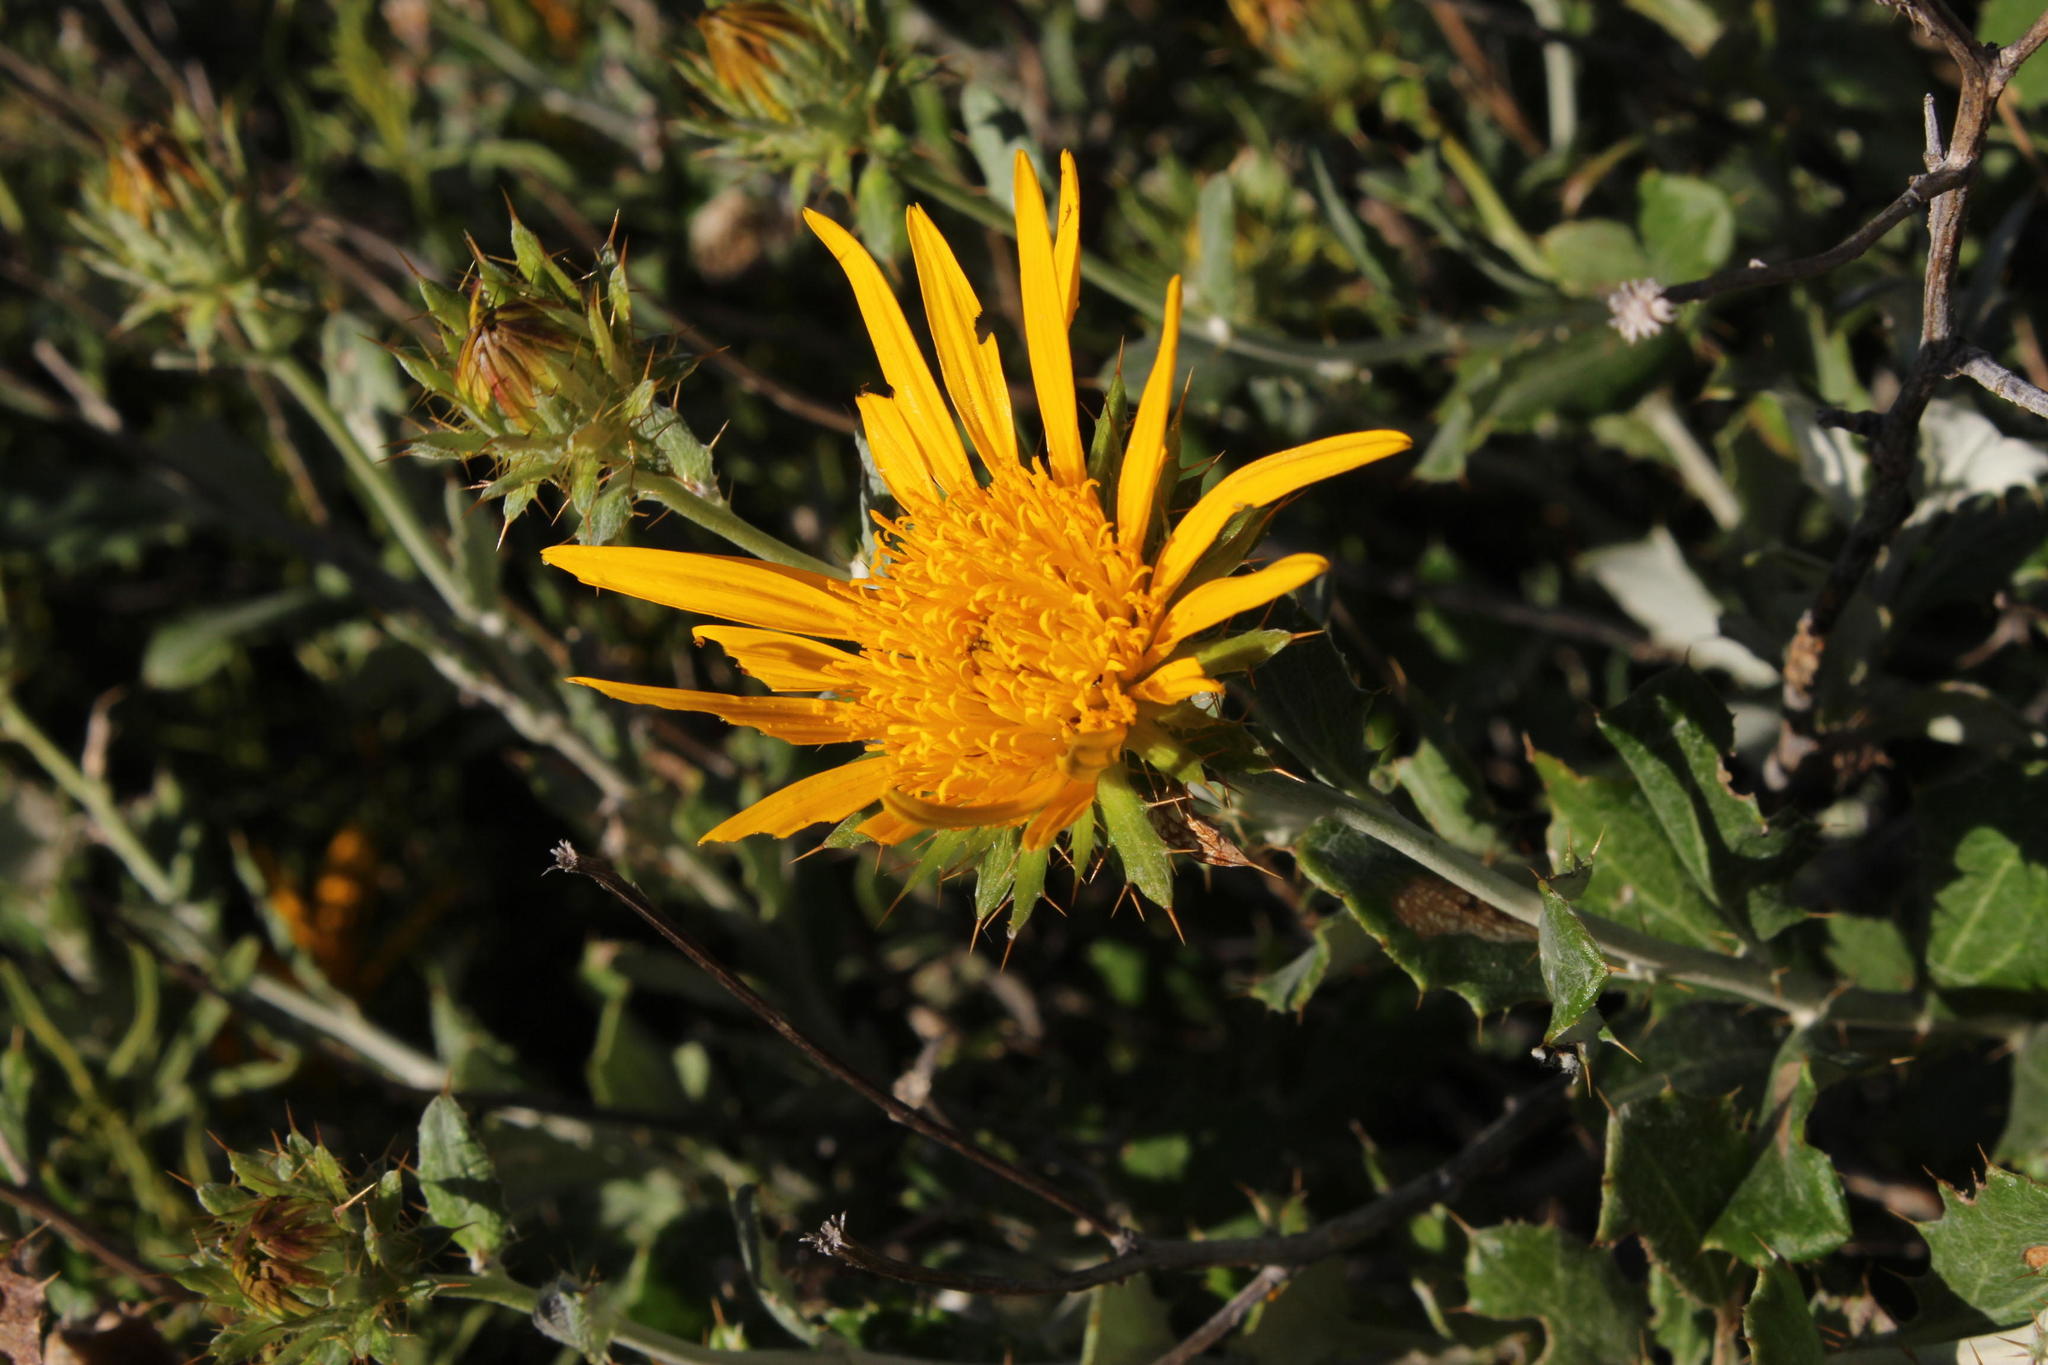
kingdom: Plantae
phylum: Tracheophyta
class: Magnoliopsida
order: Asterales
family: Asteraceae
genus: Berkheya
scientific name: Berkheya fruticosa
